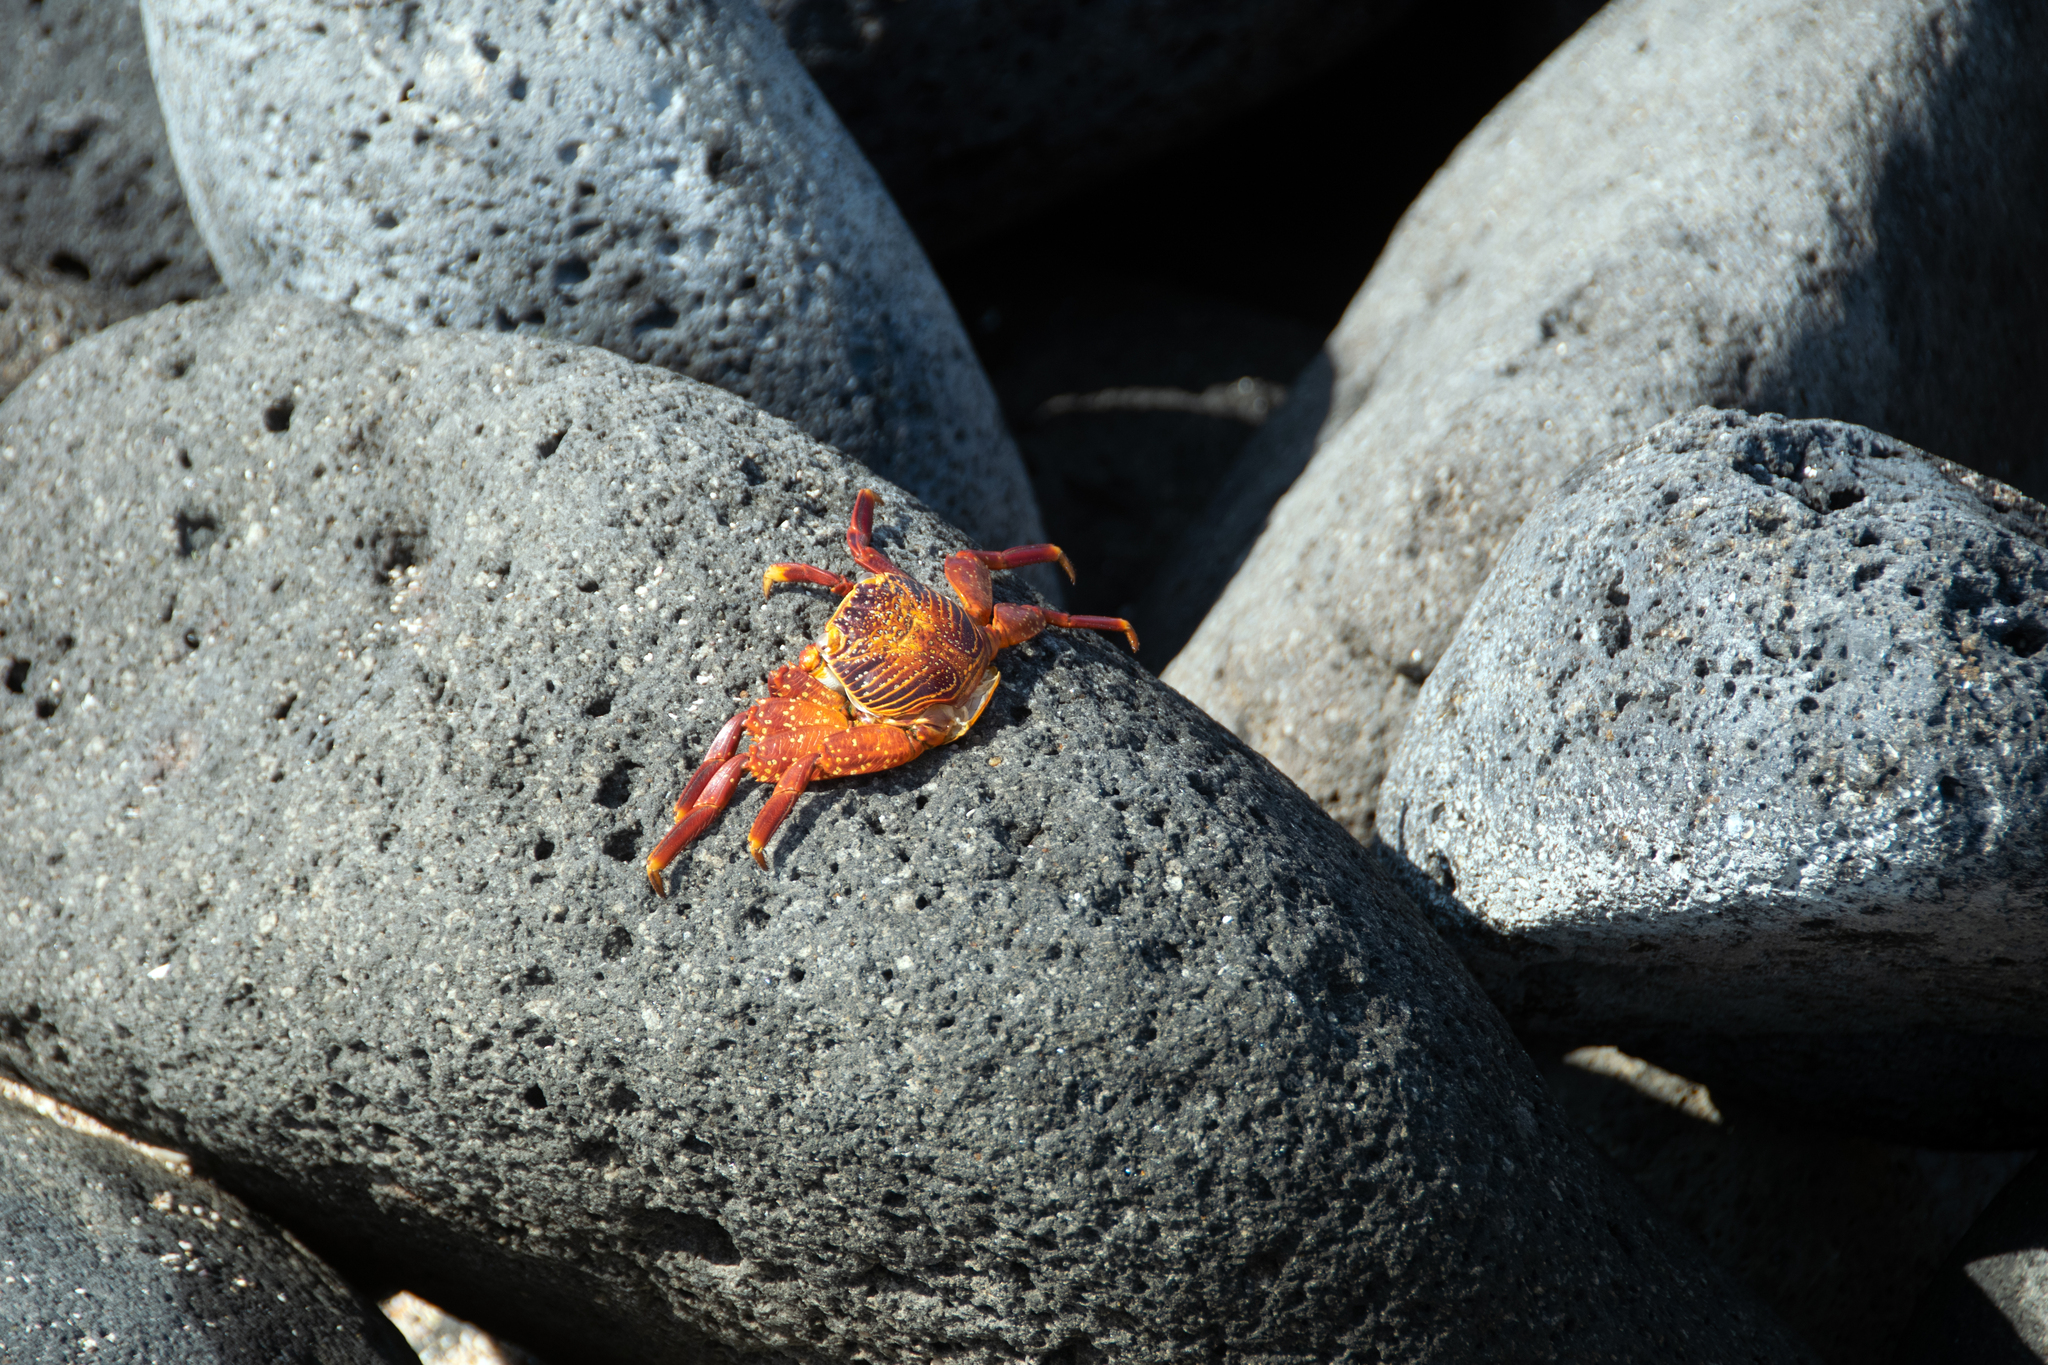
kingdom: Animalia
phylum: Arthropoda
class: Malacostraca
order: Decapoda
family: Grapsidae
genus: Grapsus
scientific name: Grapsus grapsus
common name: Sally lightfoot
